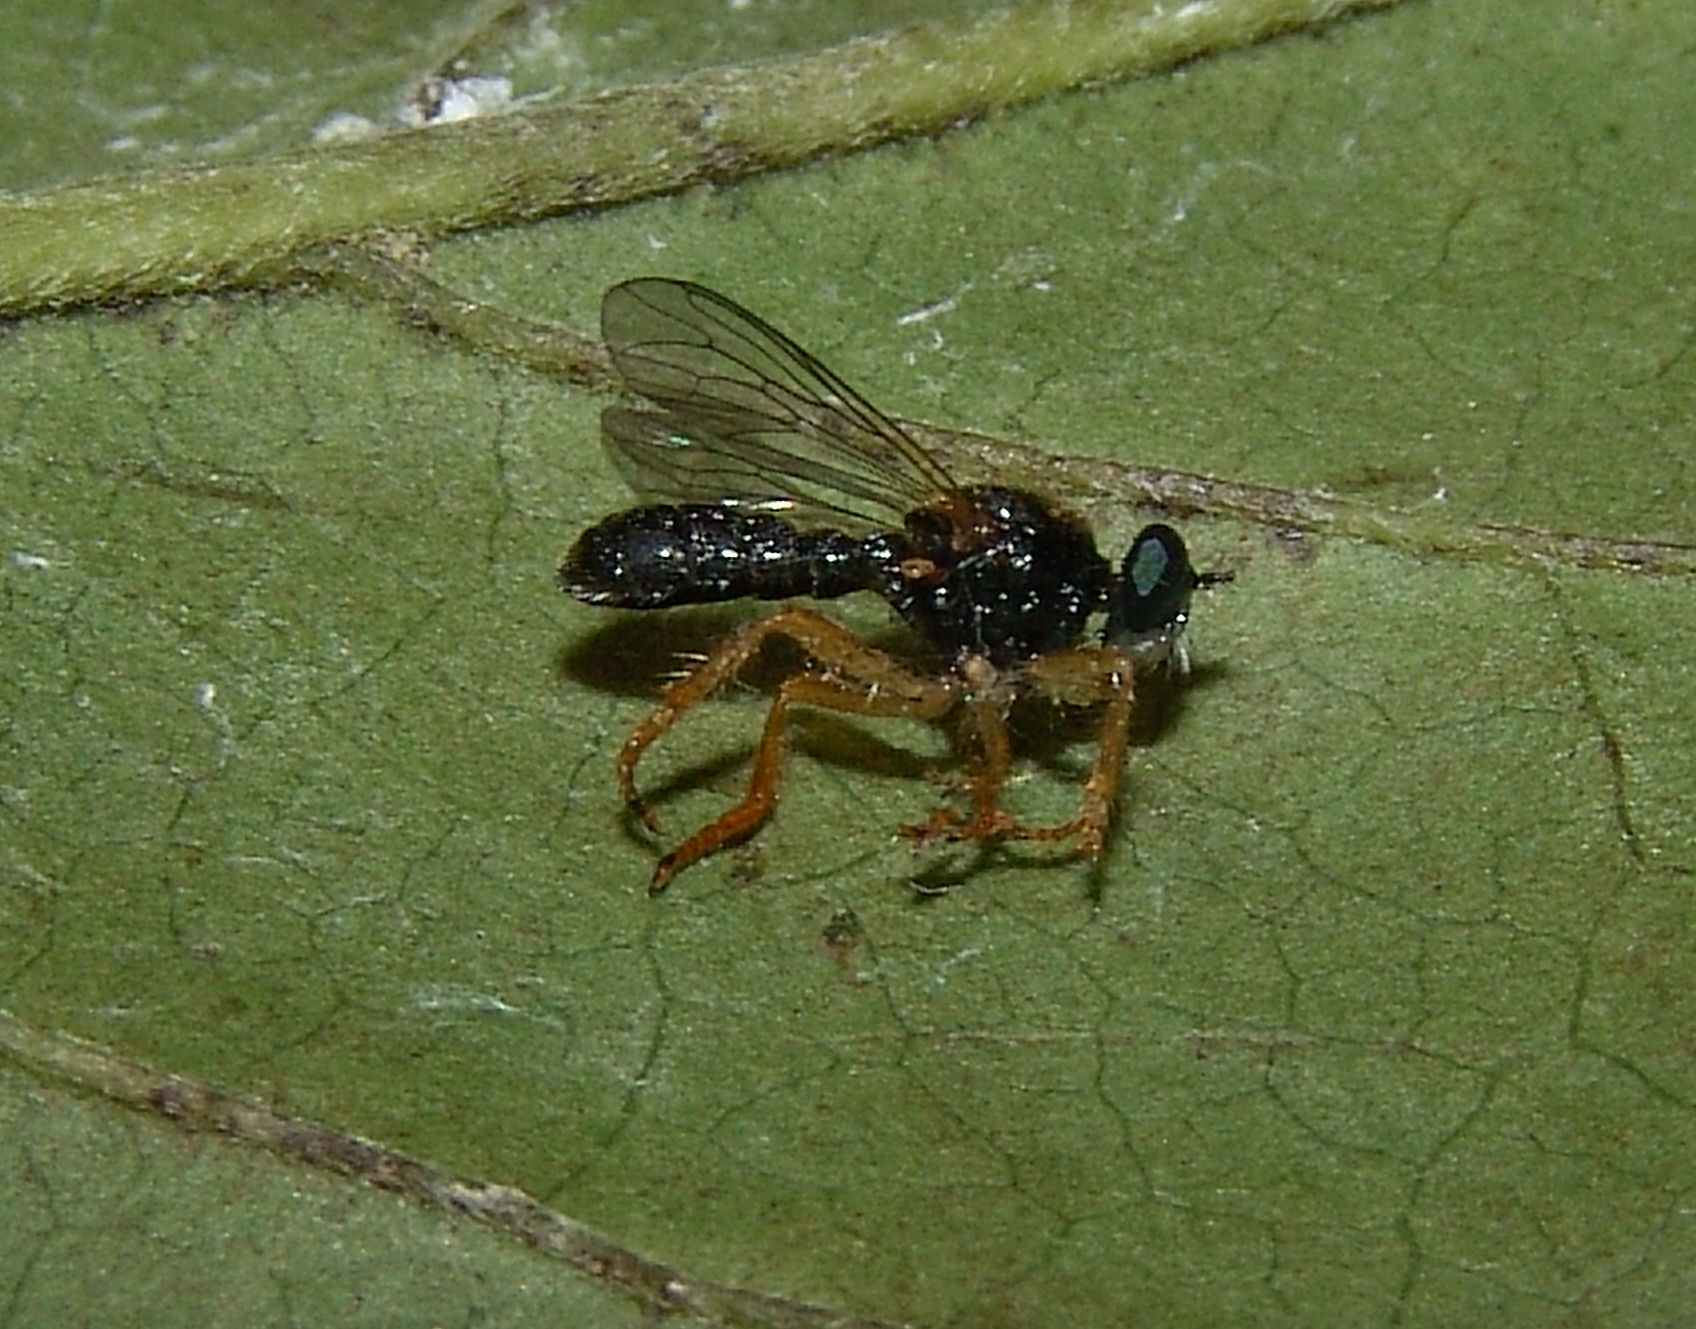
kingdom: Animalia
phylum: Arthropoda
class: Insecta
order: Diptera
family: Asilidae
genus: Atomosia
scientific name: Atomosia sayii
